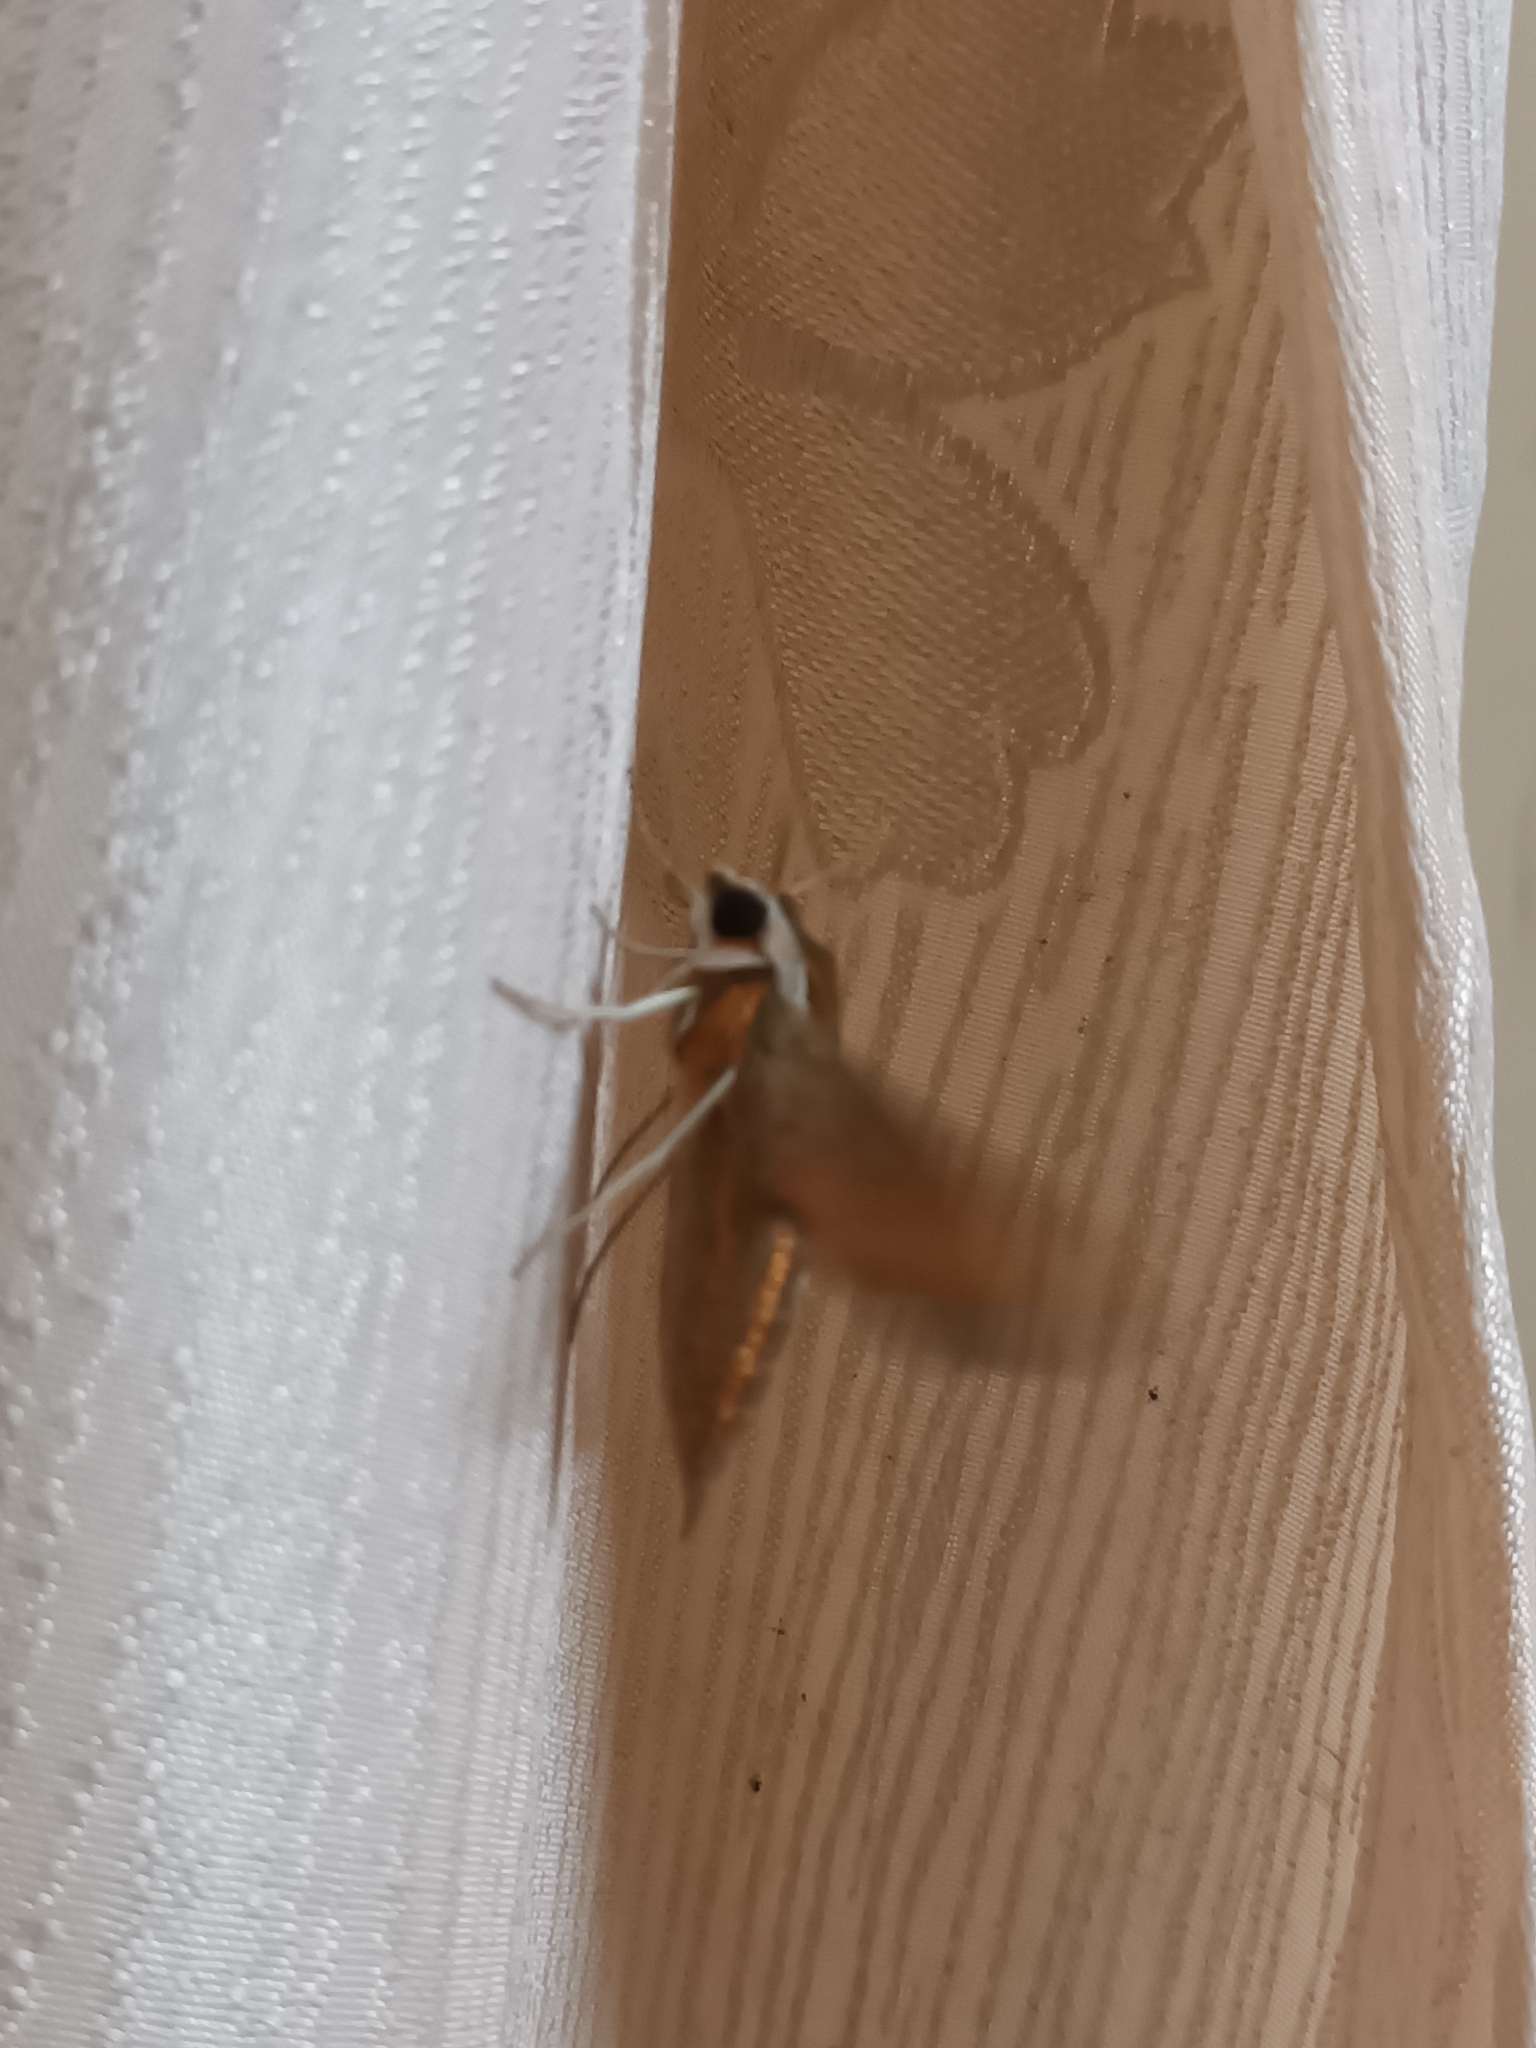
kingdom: Animalia
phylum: Arthropoda
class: Insecta
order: Lepidoptera
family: Sphingidae
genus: Hippotion
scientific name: Hippotion rosetta
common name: Vine hawk moth
